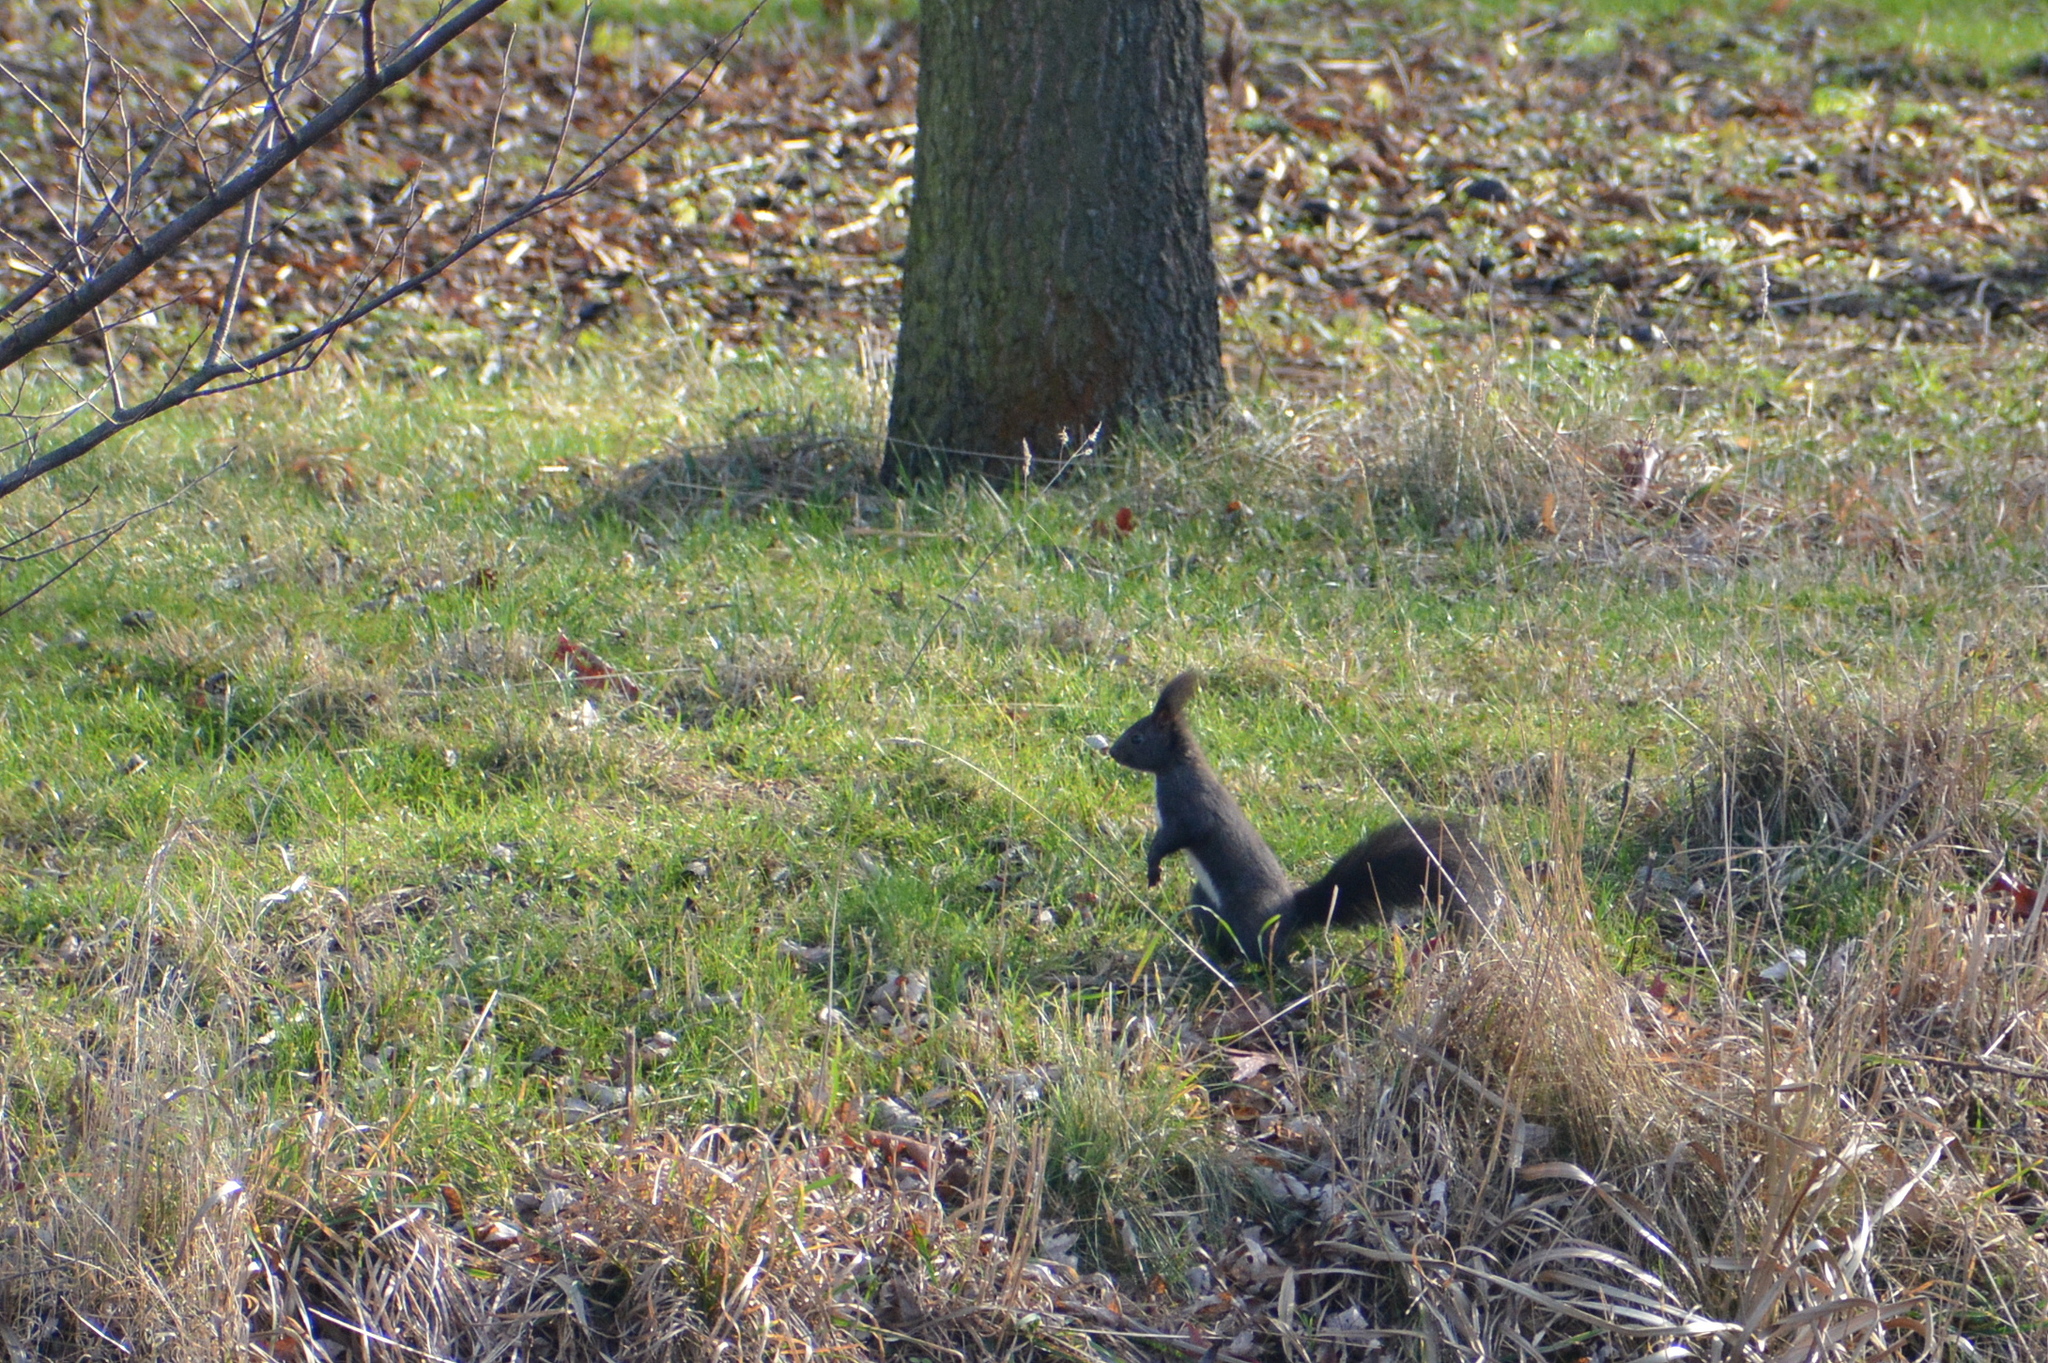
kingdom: Animalia
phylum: Chordata
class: Mammalia
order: Rodentia
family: Sciuridae
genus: Sciurus
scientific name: Sciurus vulgaris
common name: Eurasian red squirrel
